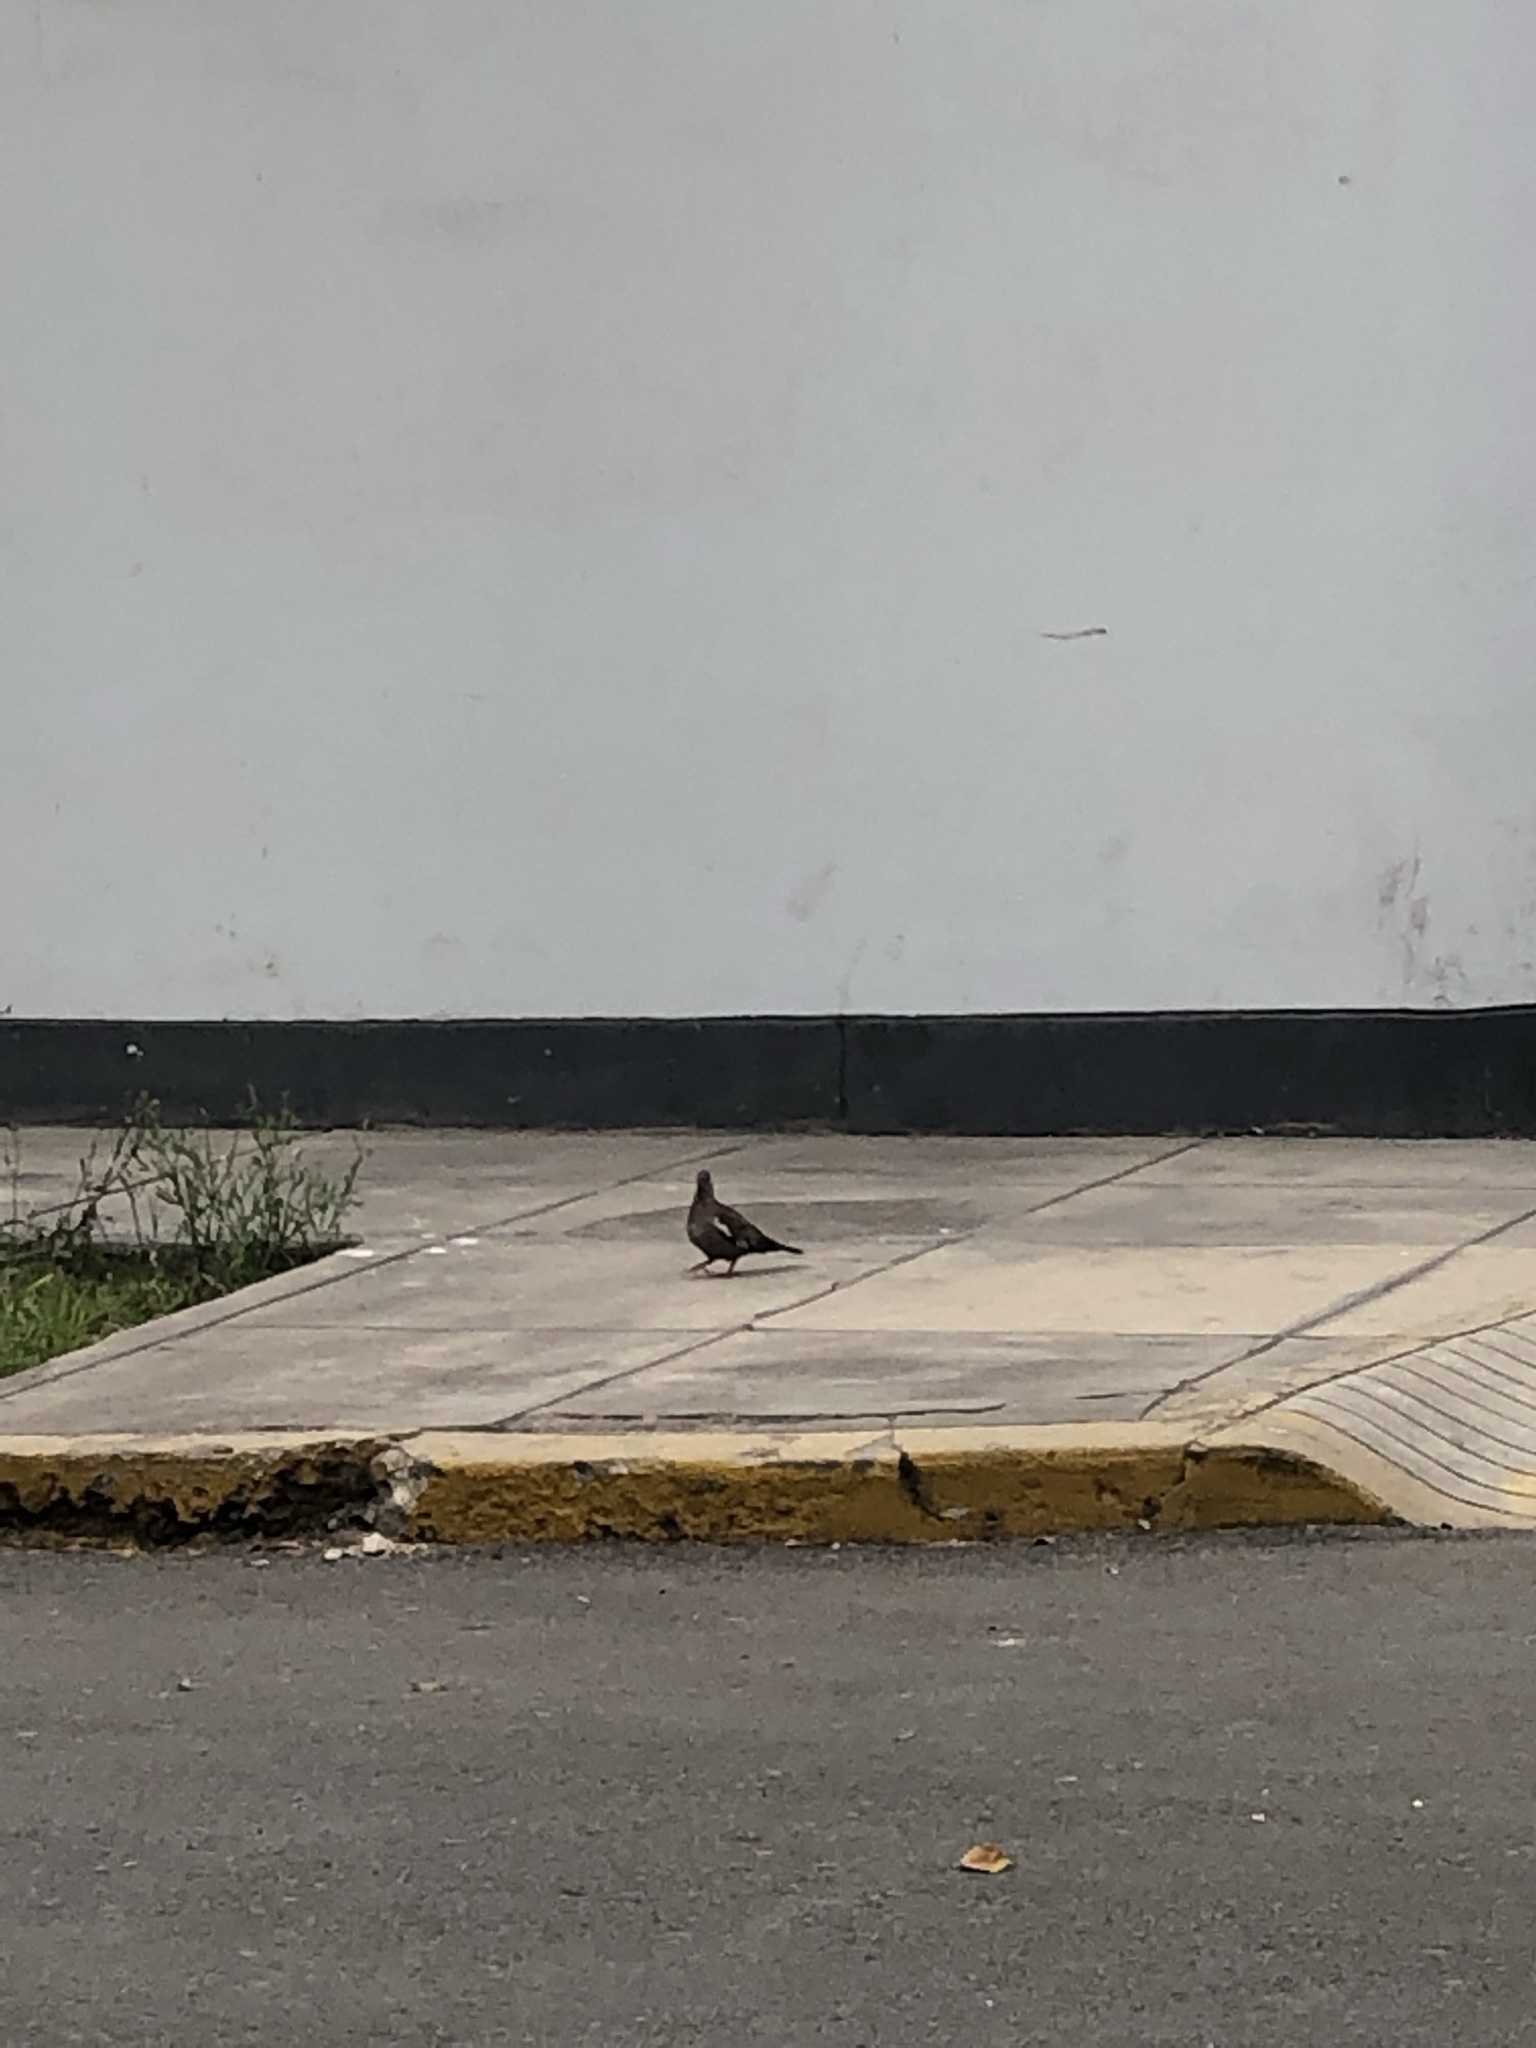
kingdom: Animalia
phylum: Chordata
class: Aves
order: Columbiformes
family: Columbidae
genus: Zenaida
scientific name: Zenaida meloda
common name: West peruvian dove
